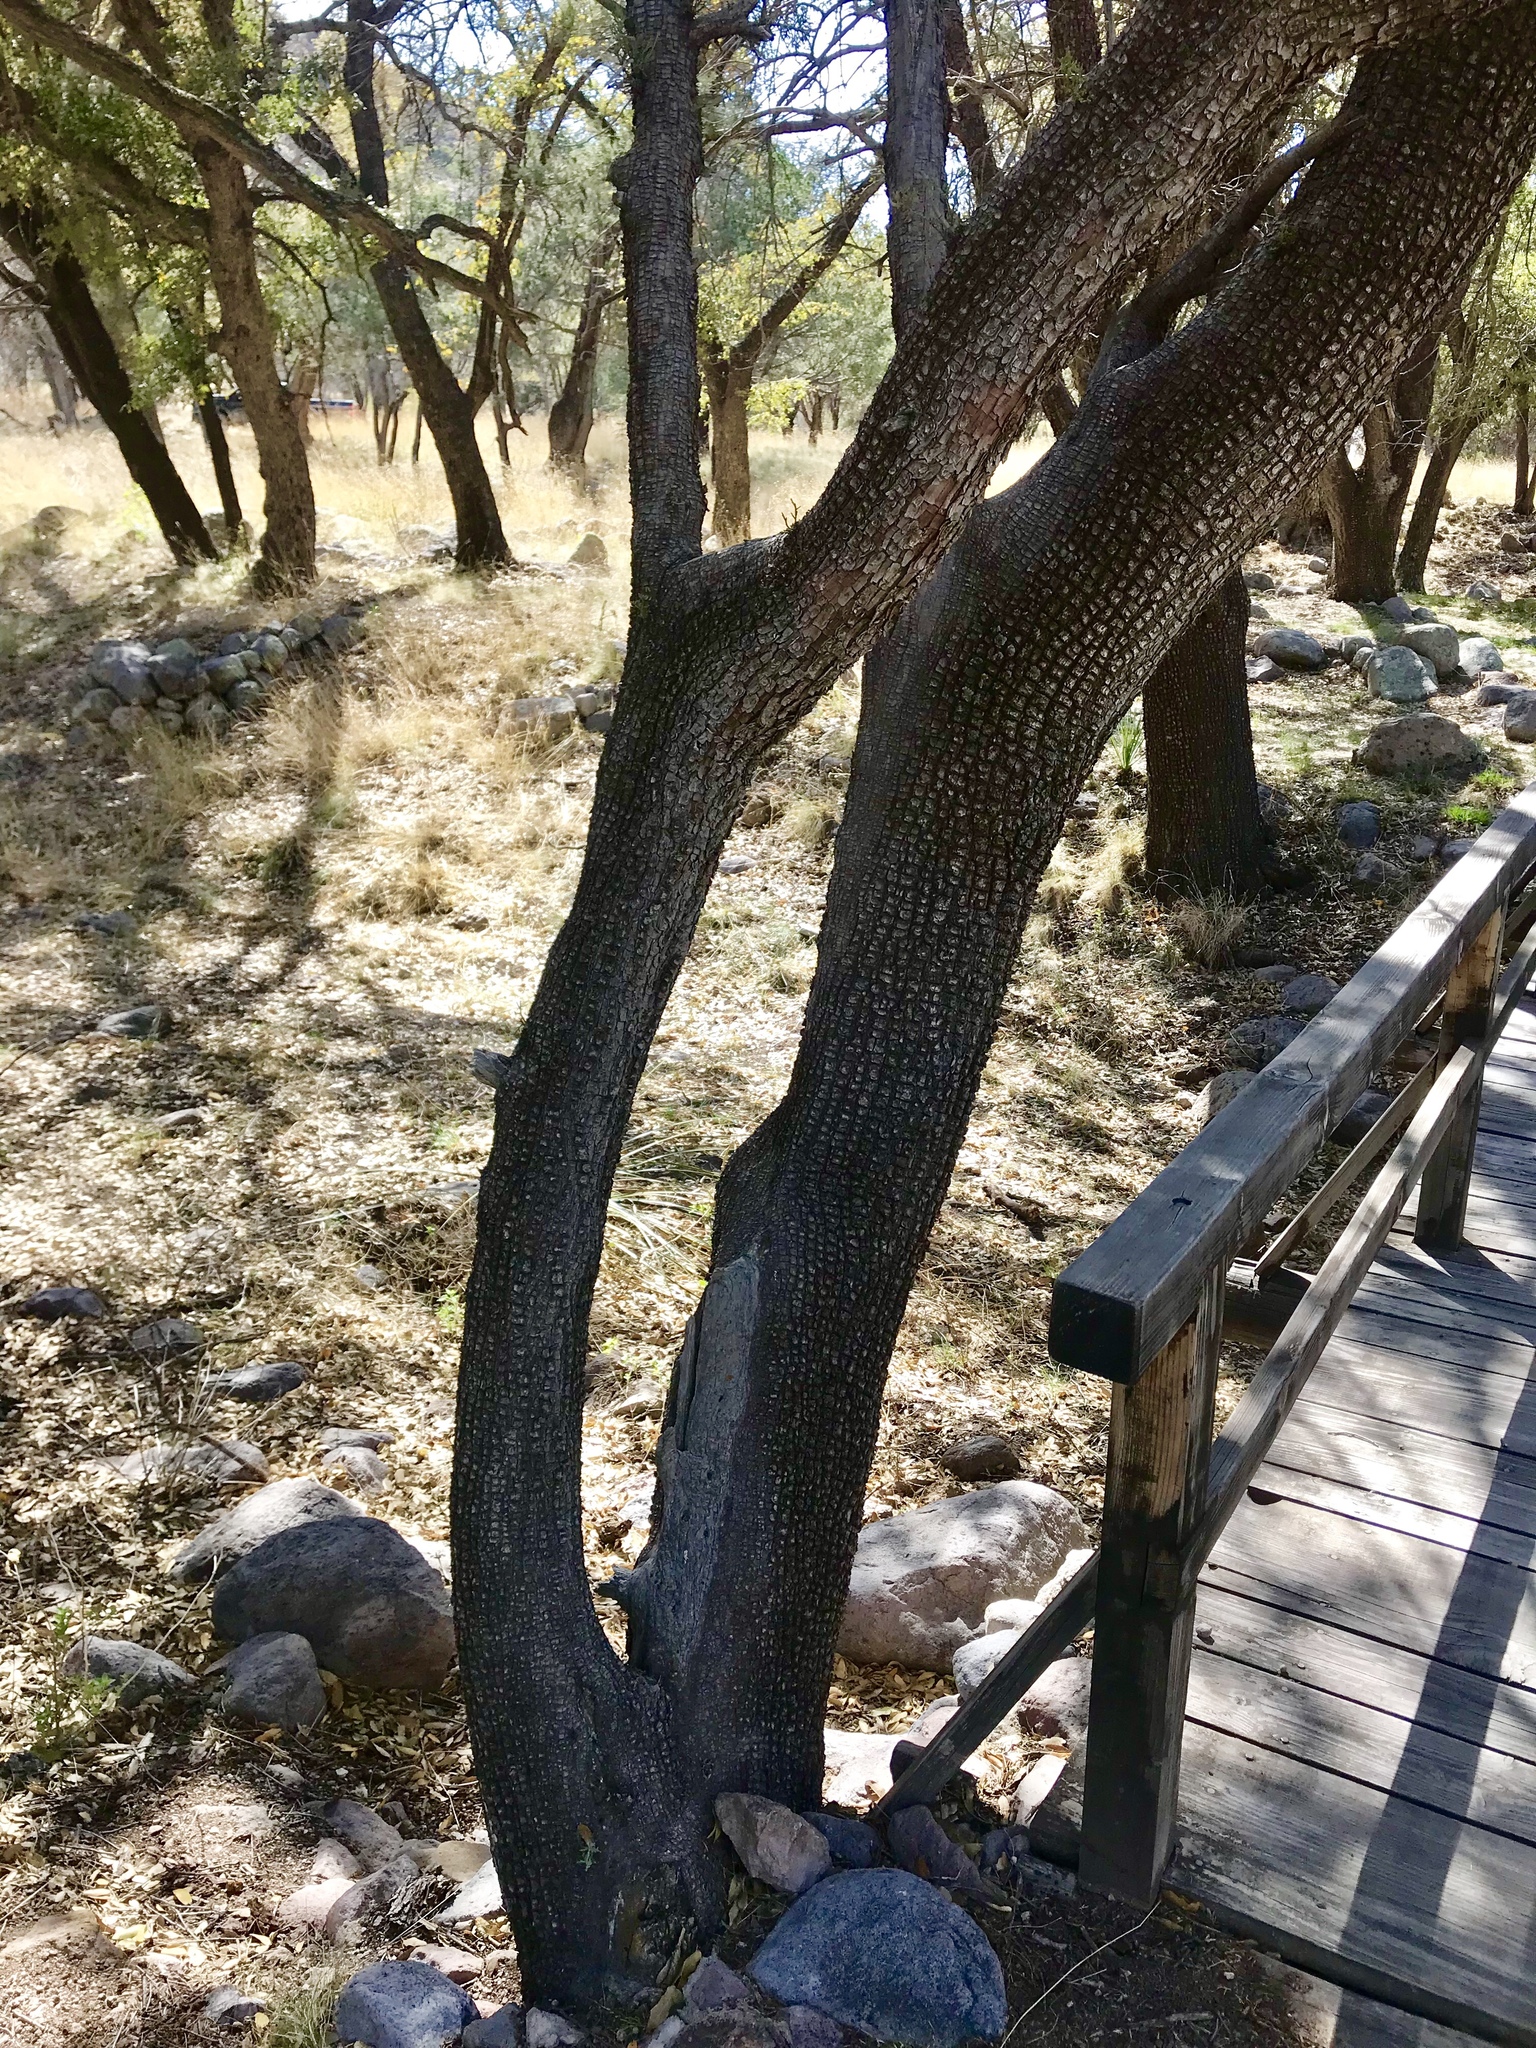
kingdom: Plantae
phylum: Tracheophyta
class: Pinopsida
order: Pinales
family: Cupressaceae
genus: Juniperus
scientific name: Juniperus deppeana
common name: Alligator juniper
